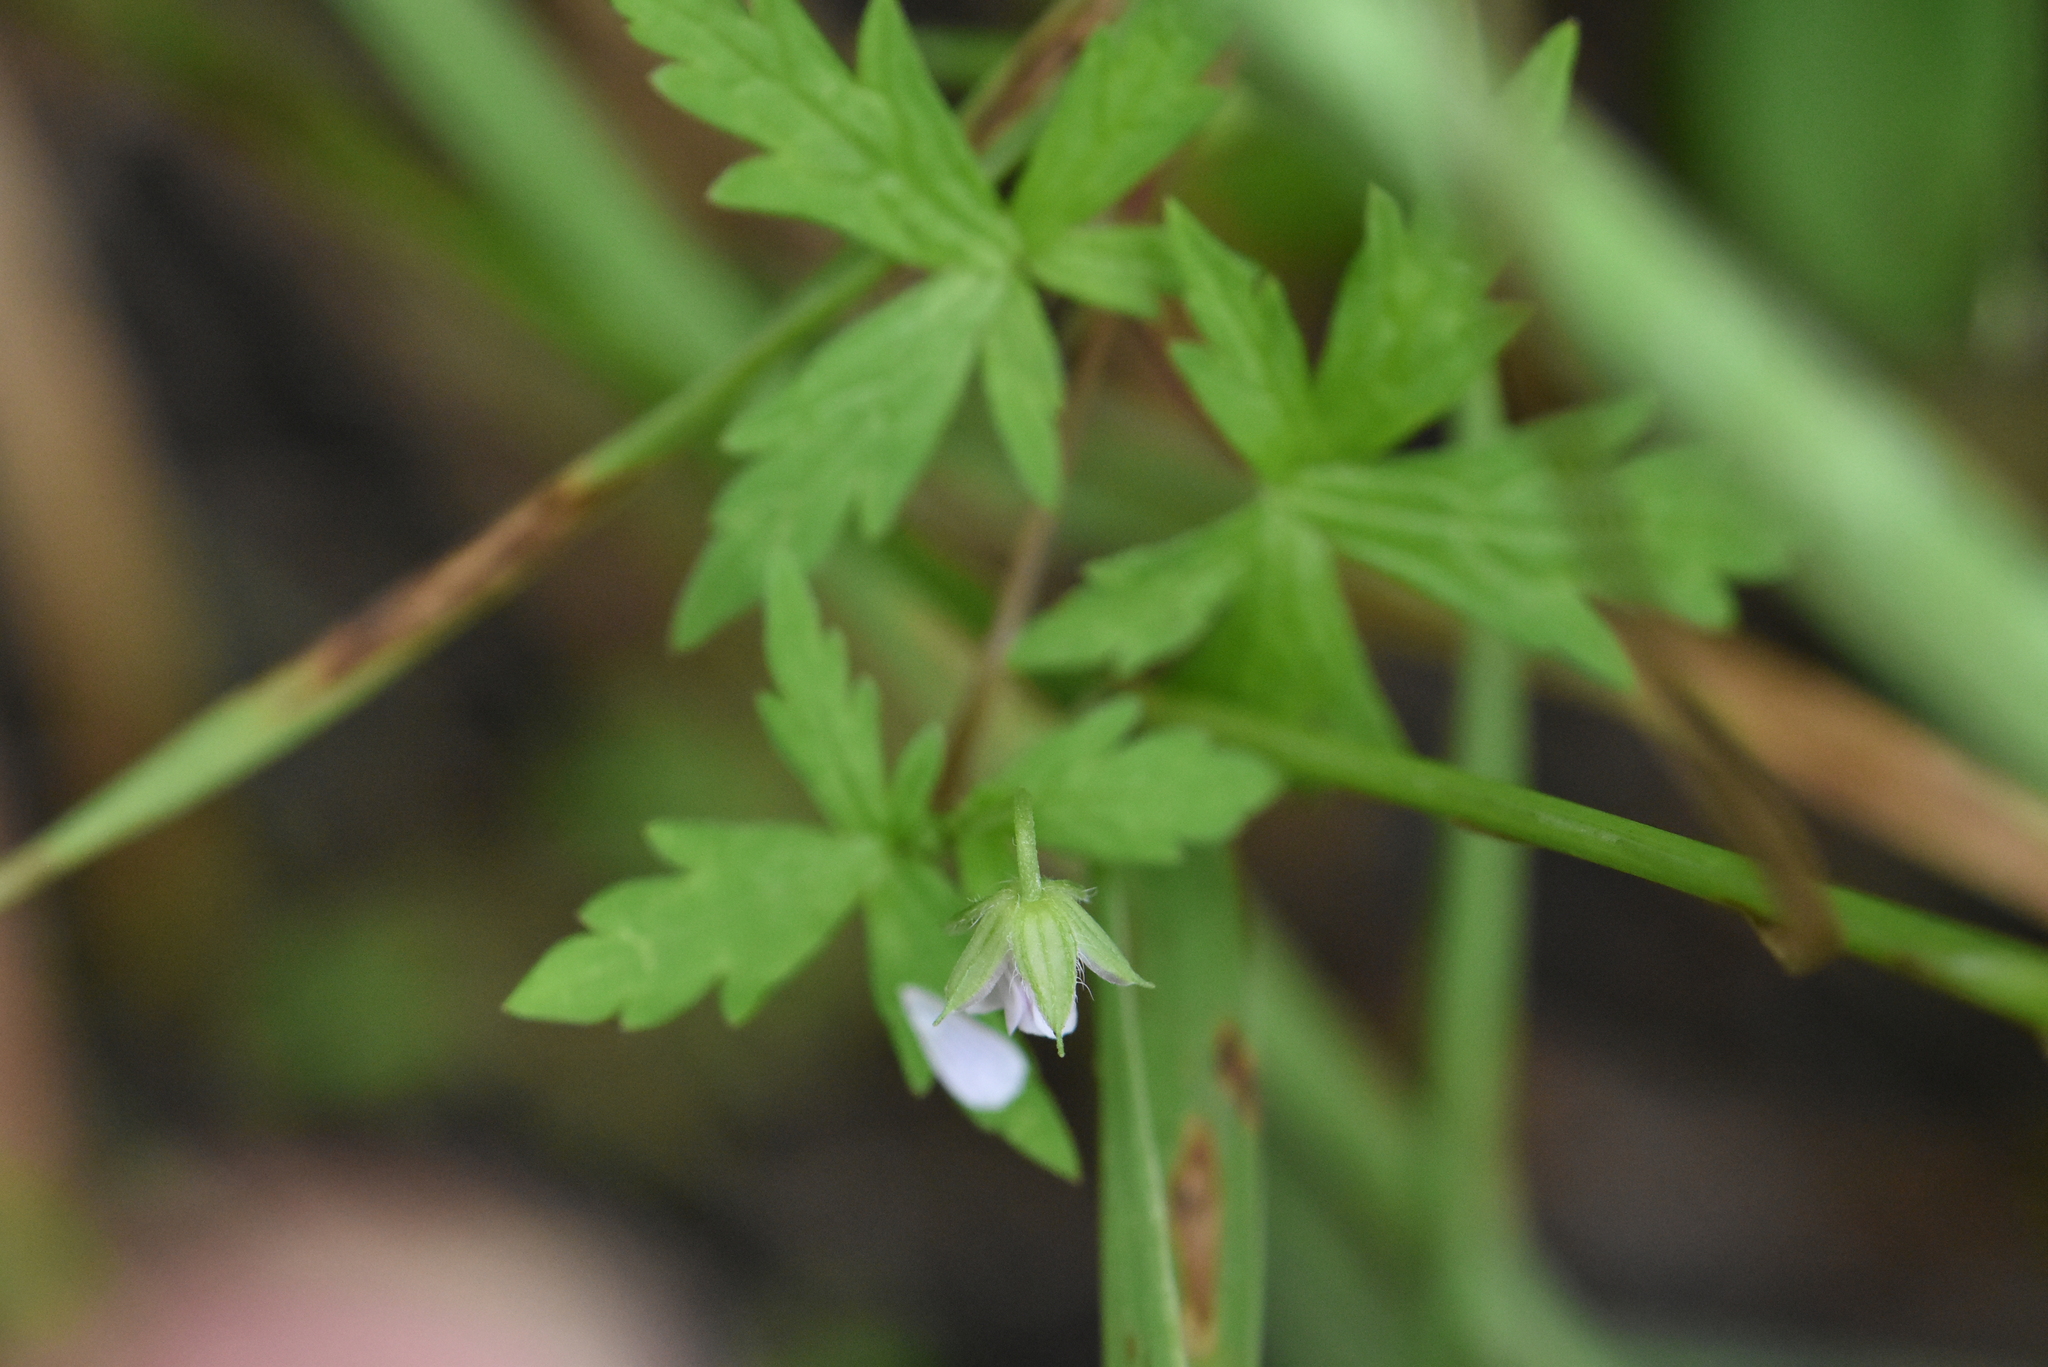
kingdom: Plantae
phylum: Tracheophyta
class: Magnoliopsida
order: Geraniales
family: Geraniaceae
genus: Geranium
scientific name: Geranium sibiricum
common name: Siberian crane's-bill
